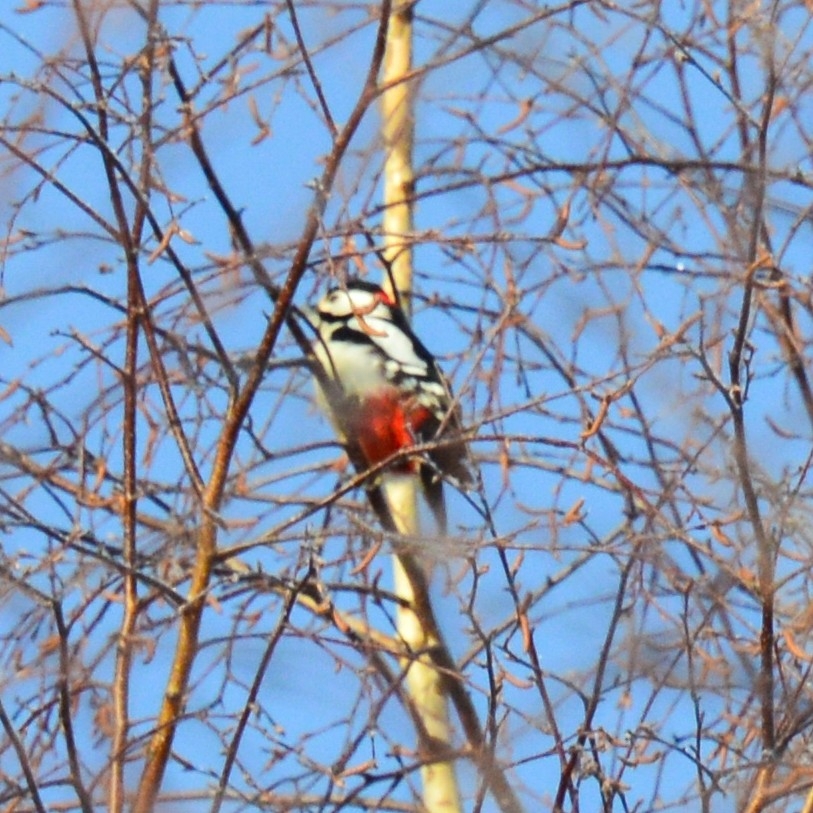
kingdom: Animalia
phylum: Chordata
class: Aves
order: Piciformes
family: Picidae
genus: Dendrocopos
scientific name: Dendrocopos major
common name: Great spotted woodpecker
